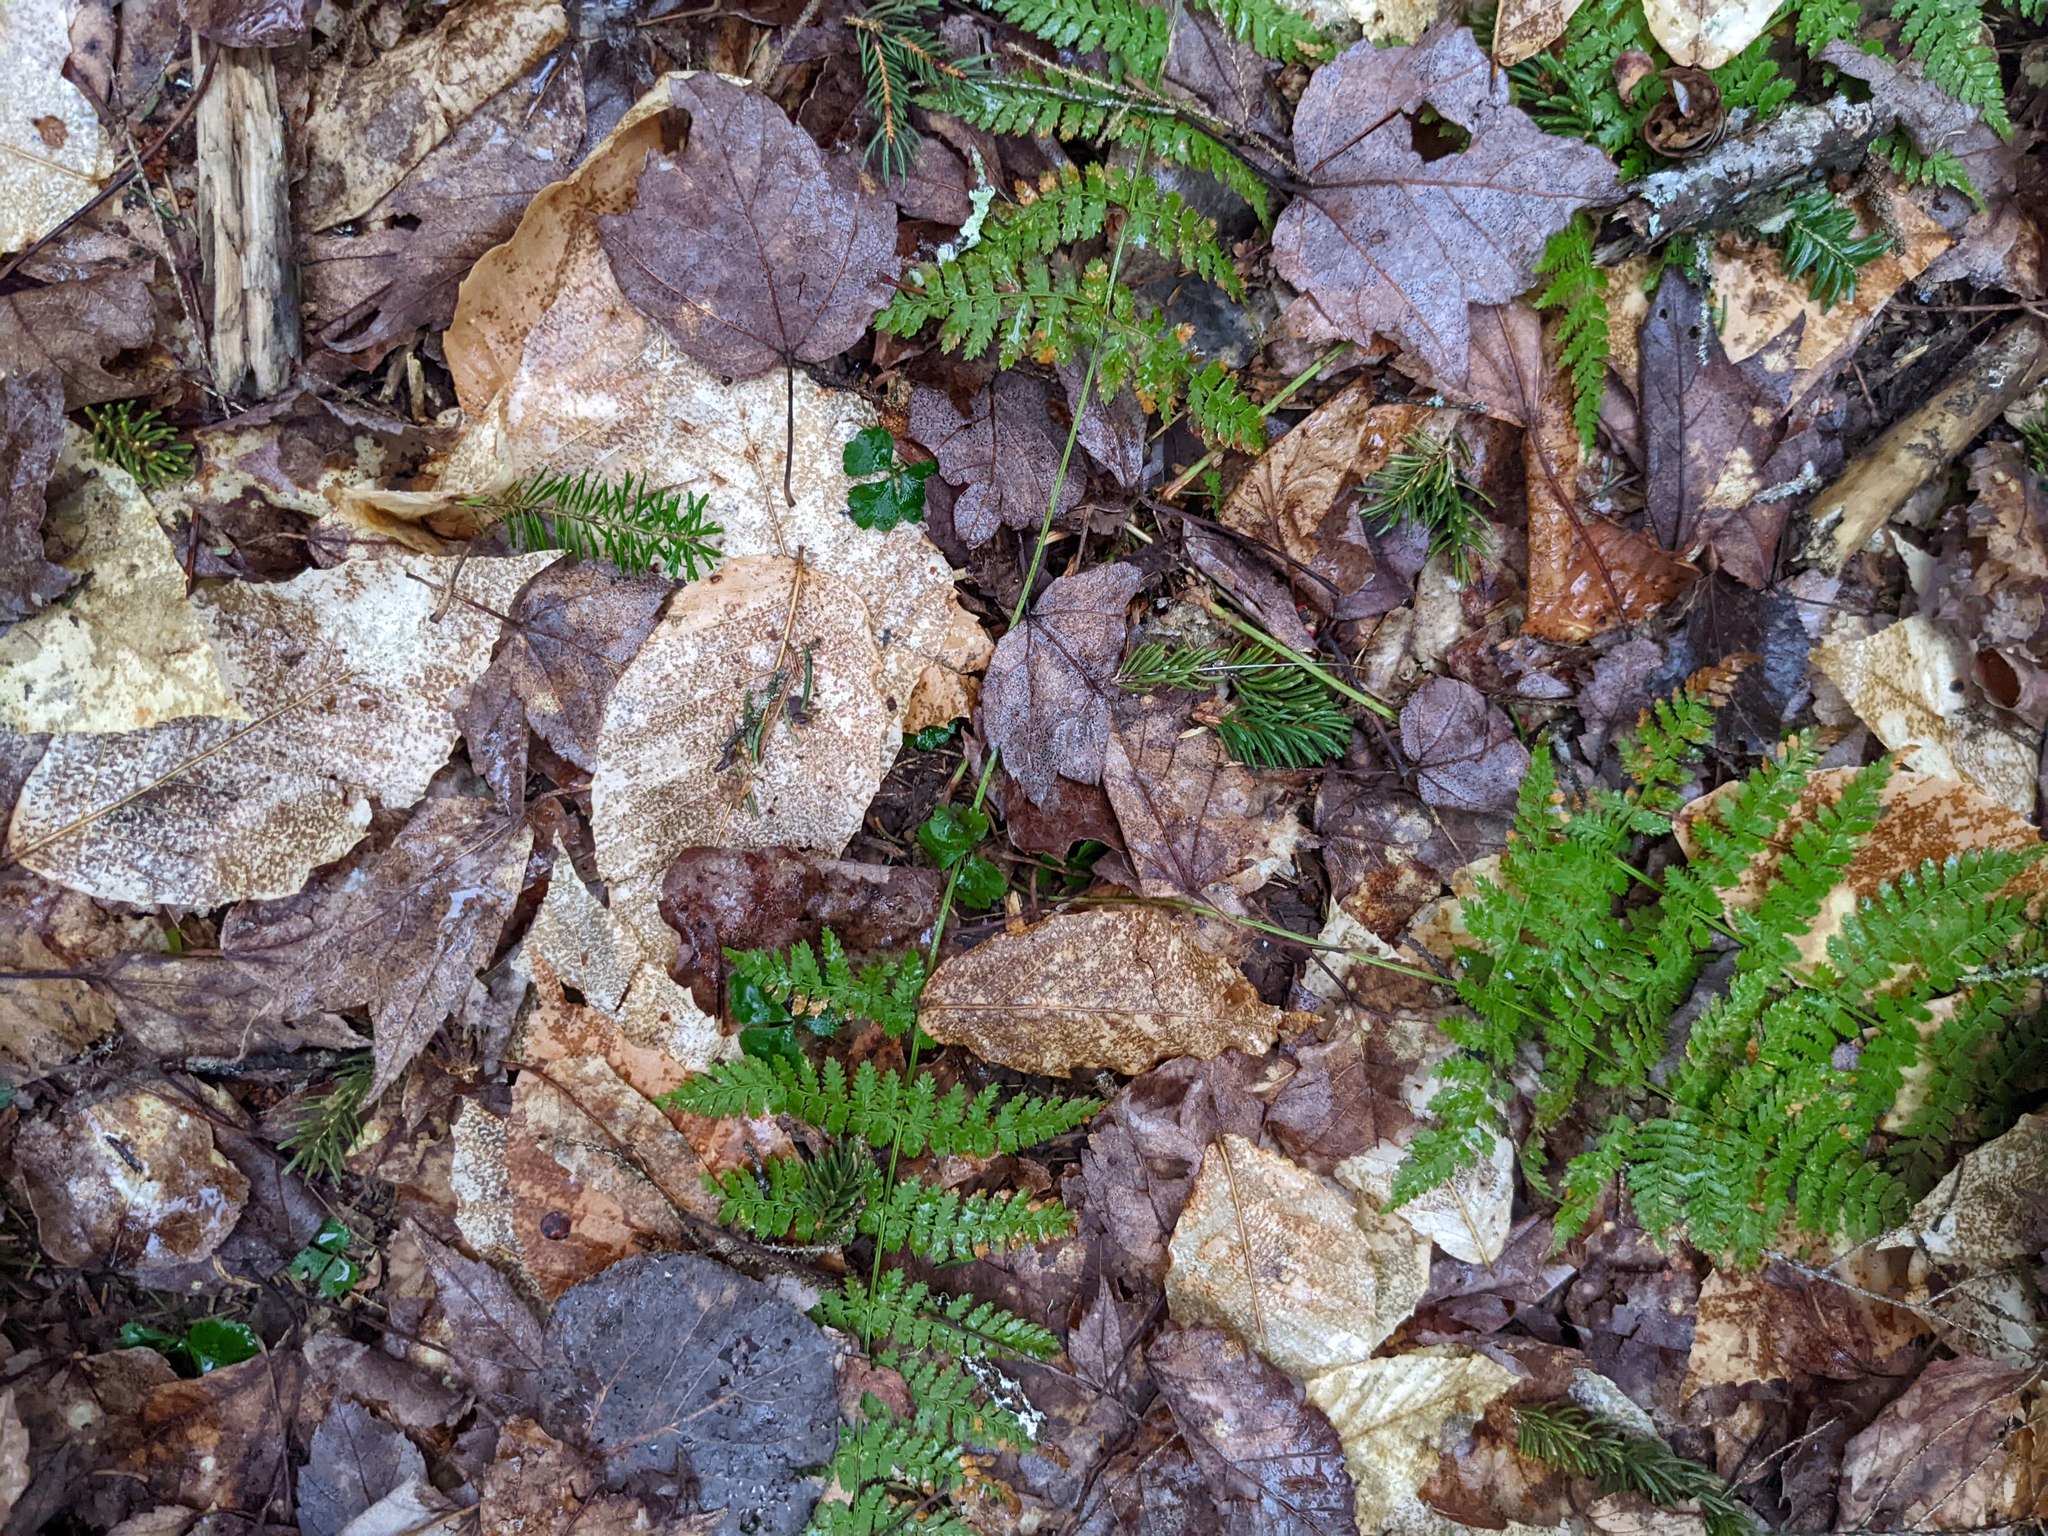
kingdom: Plantae
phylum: Tracheophyta
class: Magnoliopsida
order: Fagales
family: Fagaceae
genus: Fagus
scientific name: Fagus grandifolia
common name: American beech
